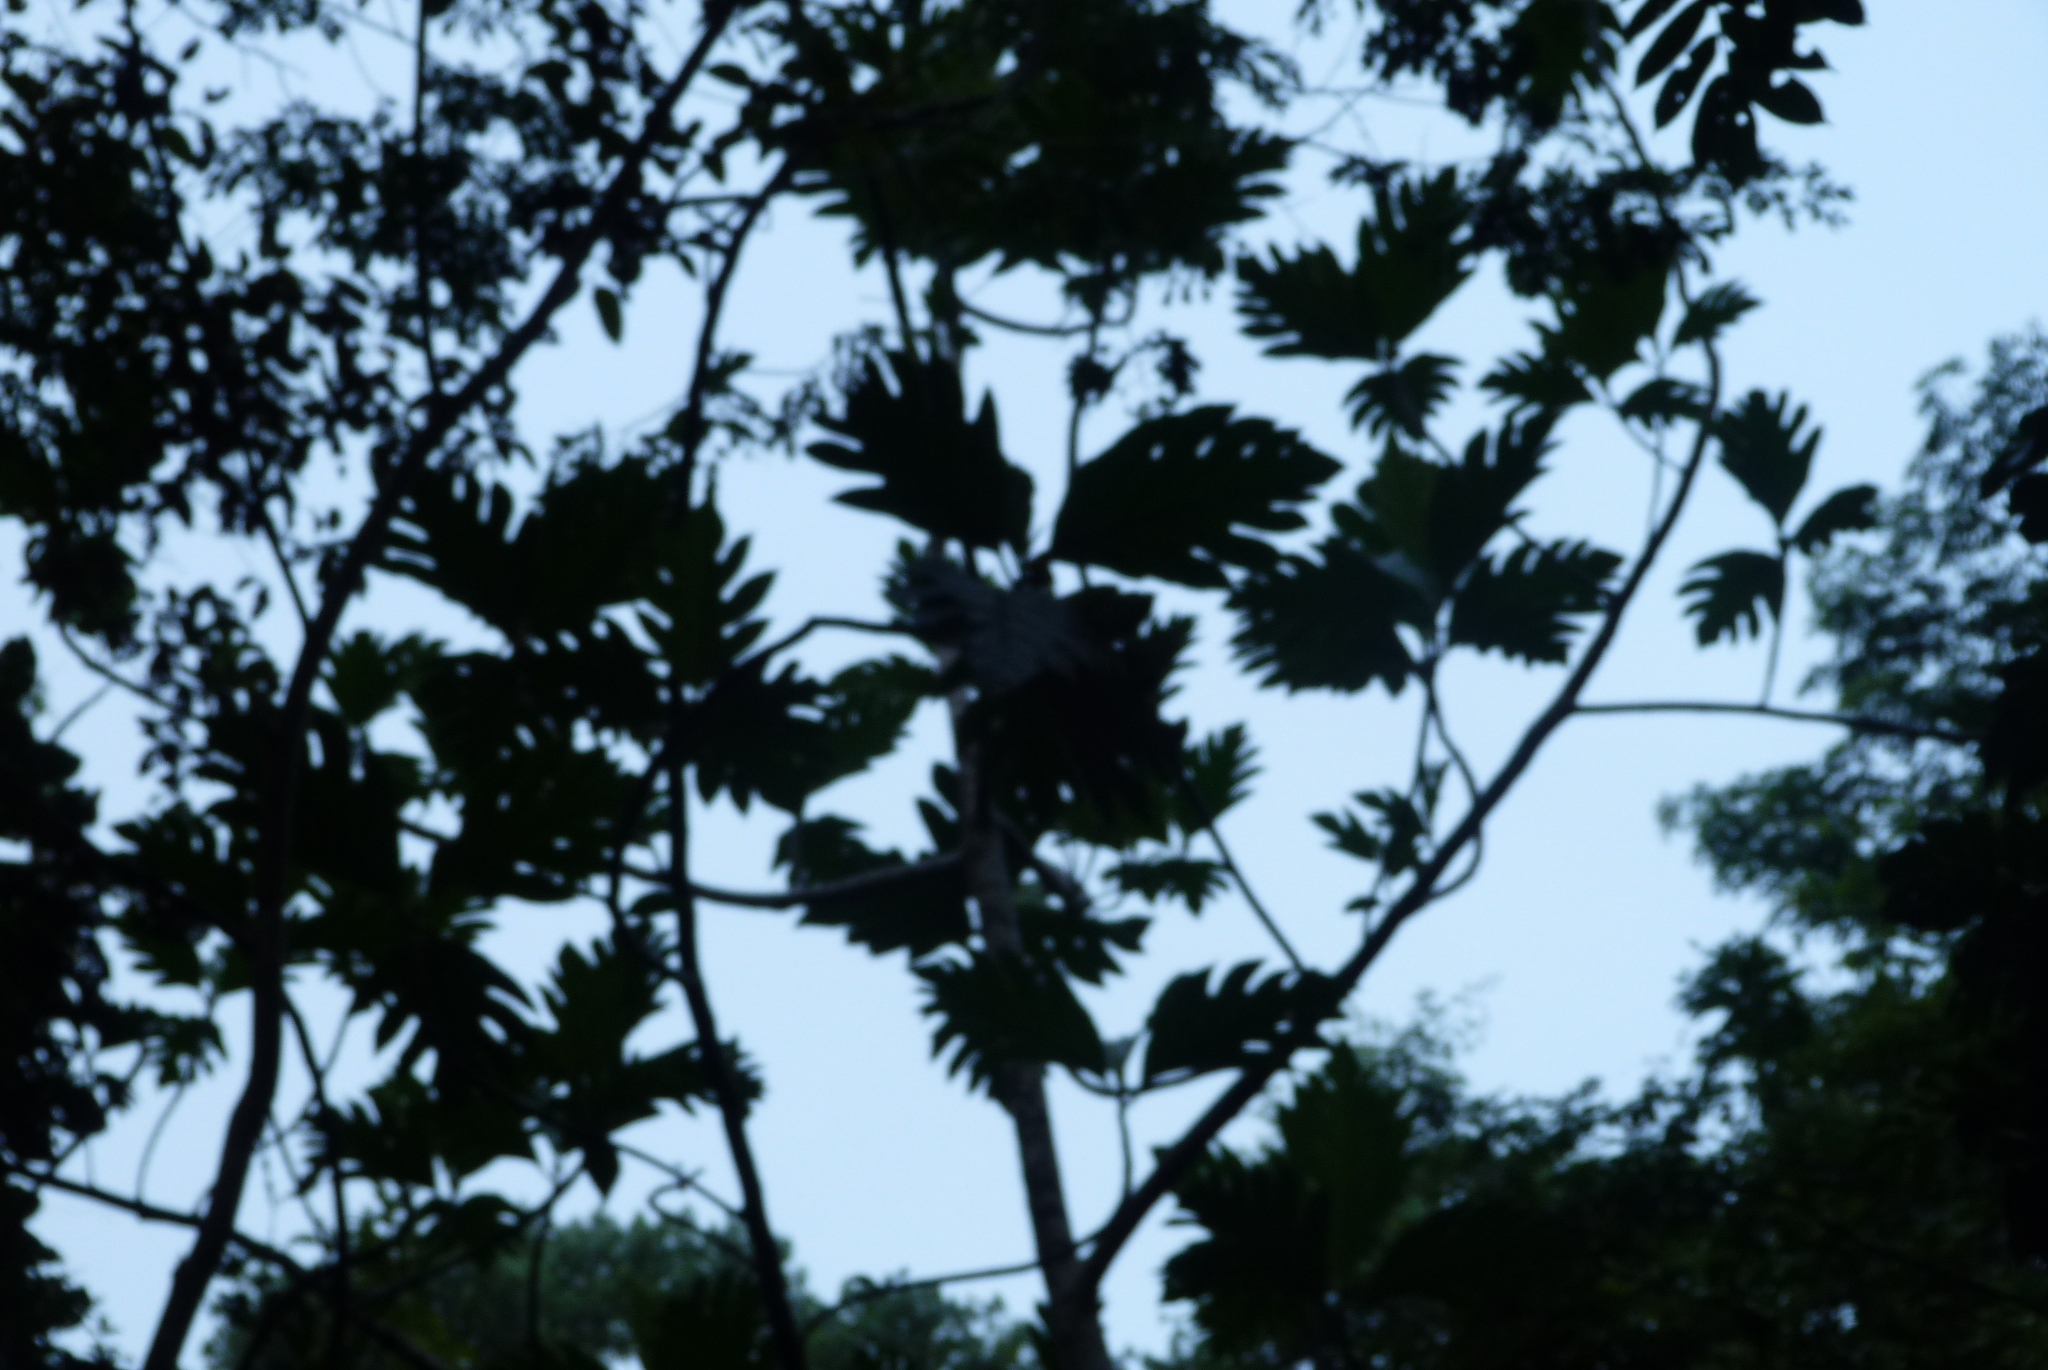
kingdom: Plantae
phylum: Tracheophyta
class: Magnoliopsida
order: Rosales
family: Moraceae
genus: Artocarpus
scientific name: Artocarpus altilis
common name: Breadfruit
